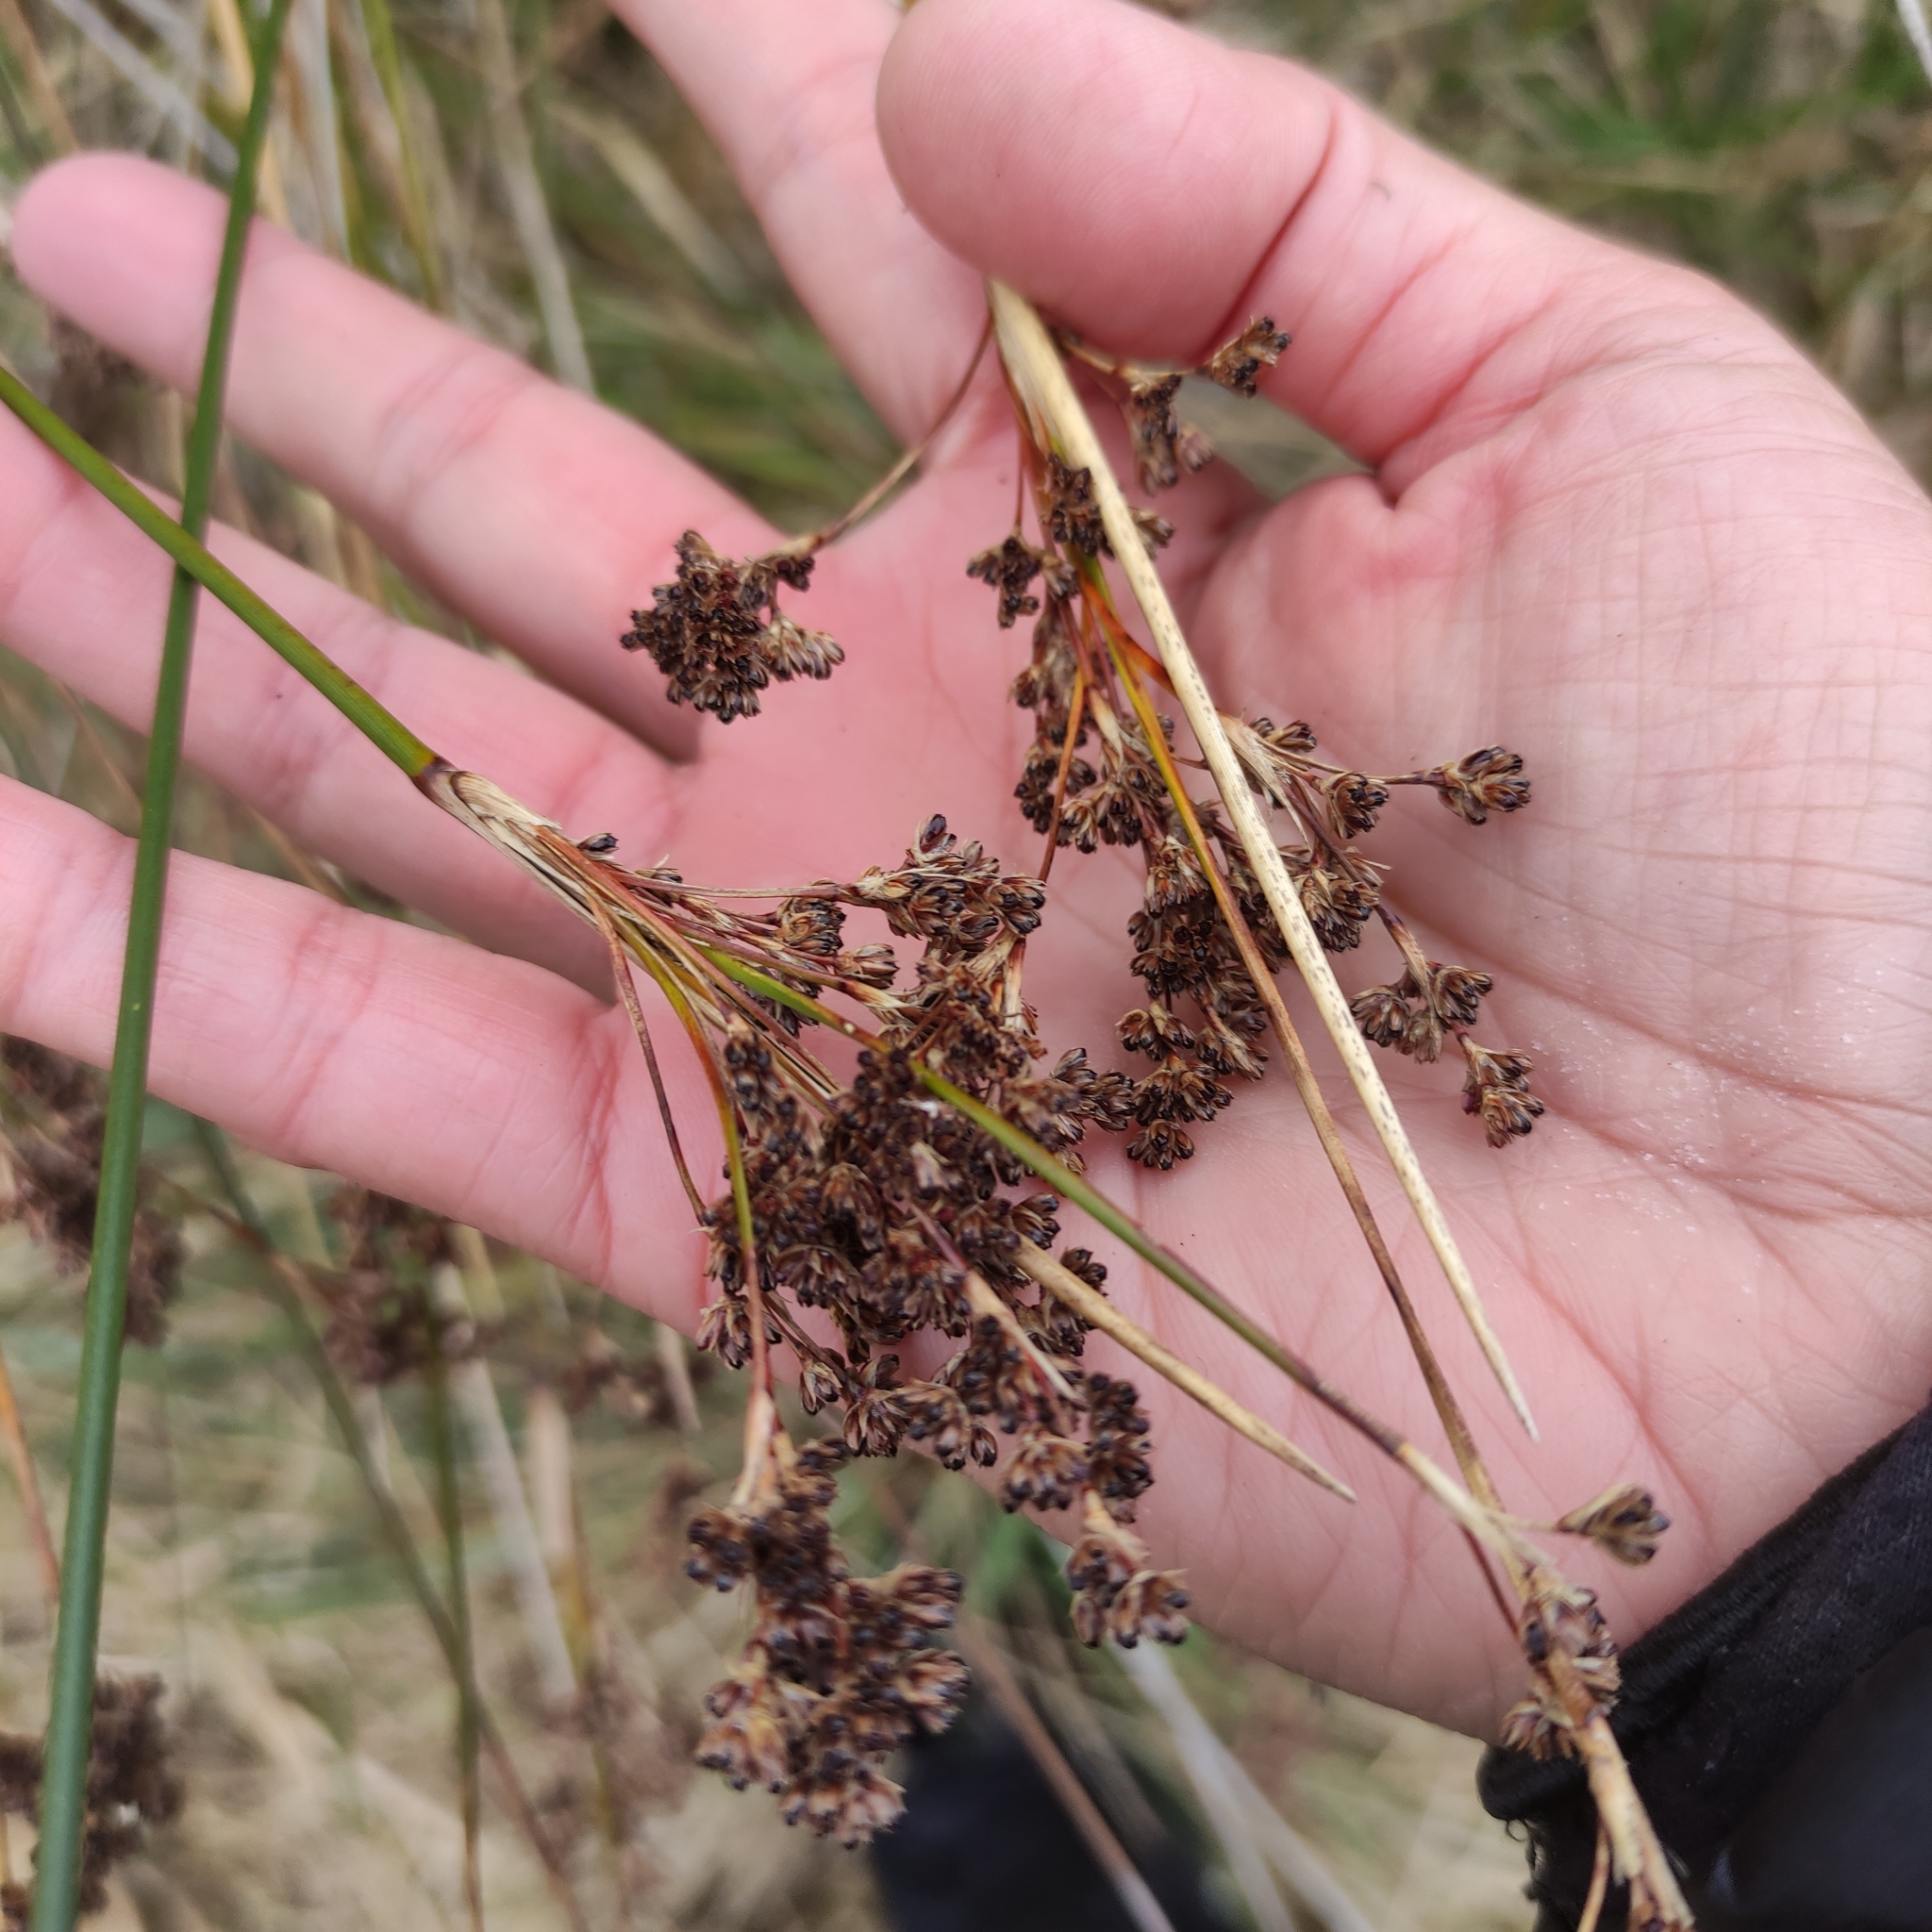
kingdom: Plantae
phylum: Tracheophyta
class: Liliopsida
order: Poales
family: Juncaceae
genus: Juncus
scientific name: Juncus kraussii
